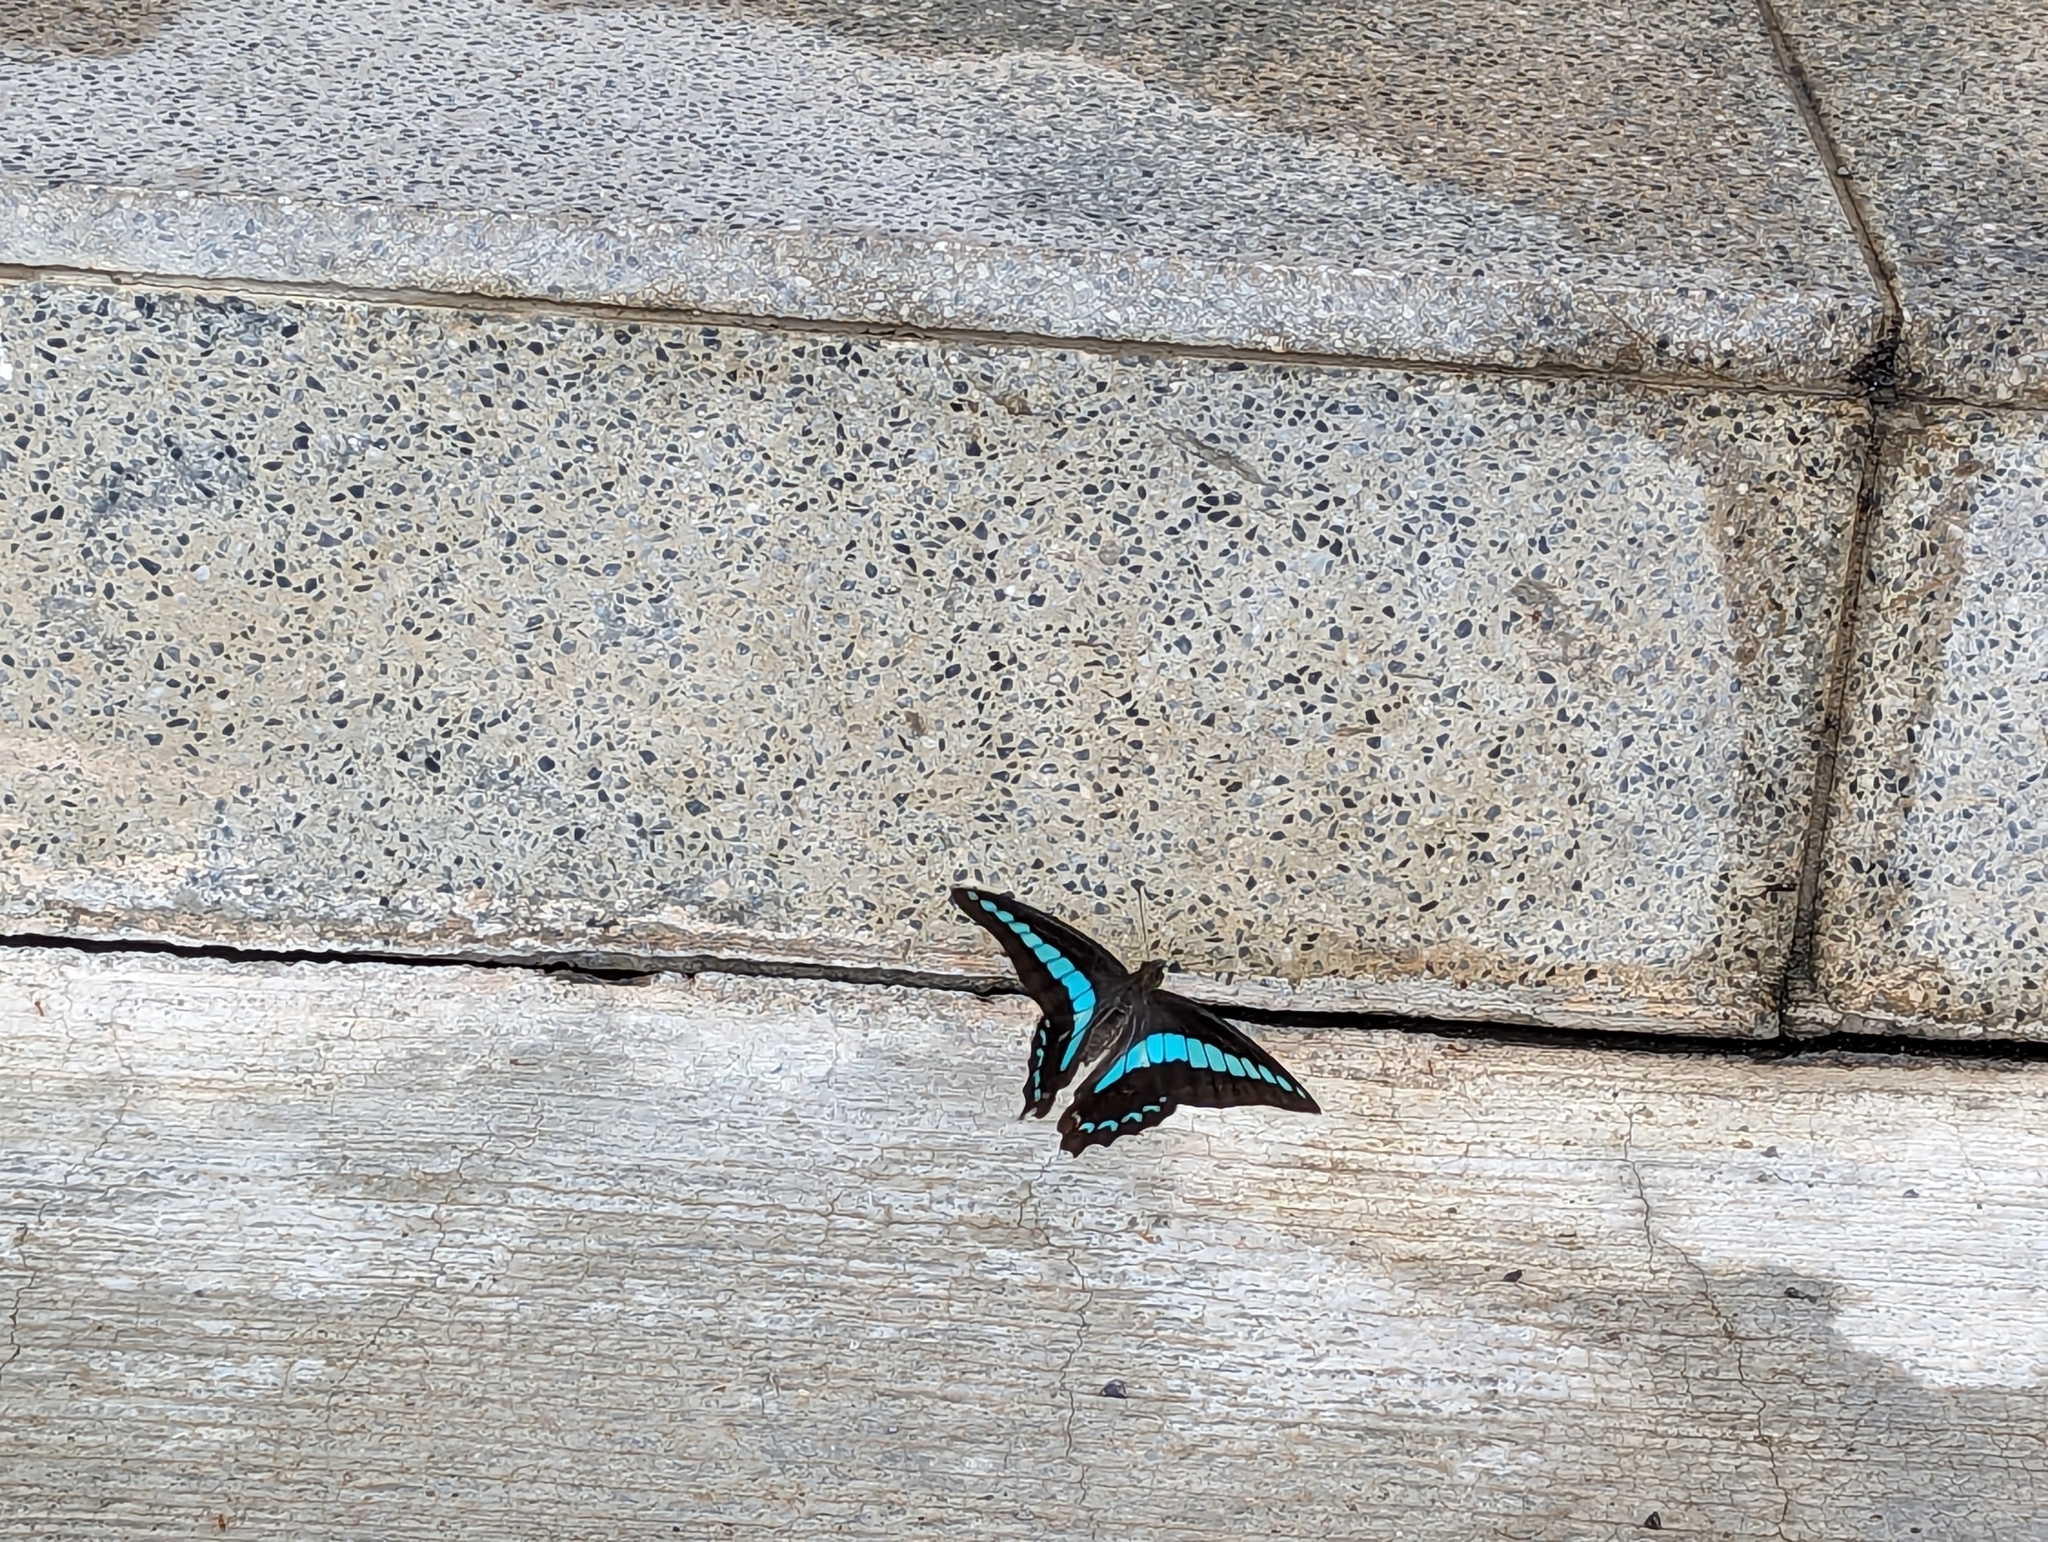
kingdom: Fungi
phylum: Ascomycota
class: Sordariomycetes
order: Microascales
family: Microascaceae
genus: Graphium
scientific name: Graphium sarpedon
